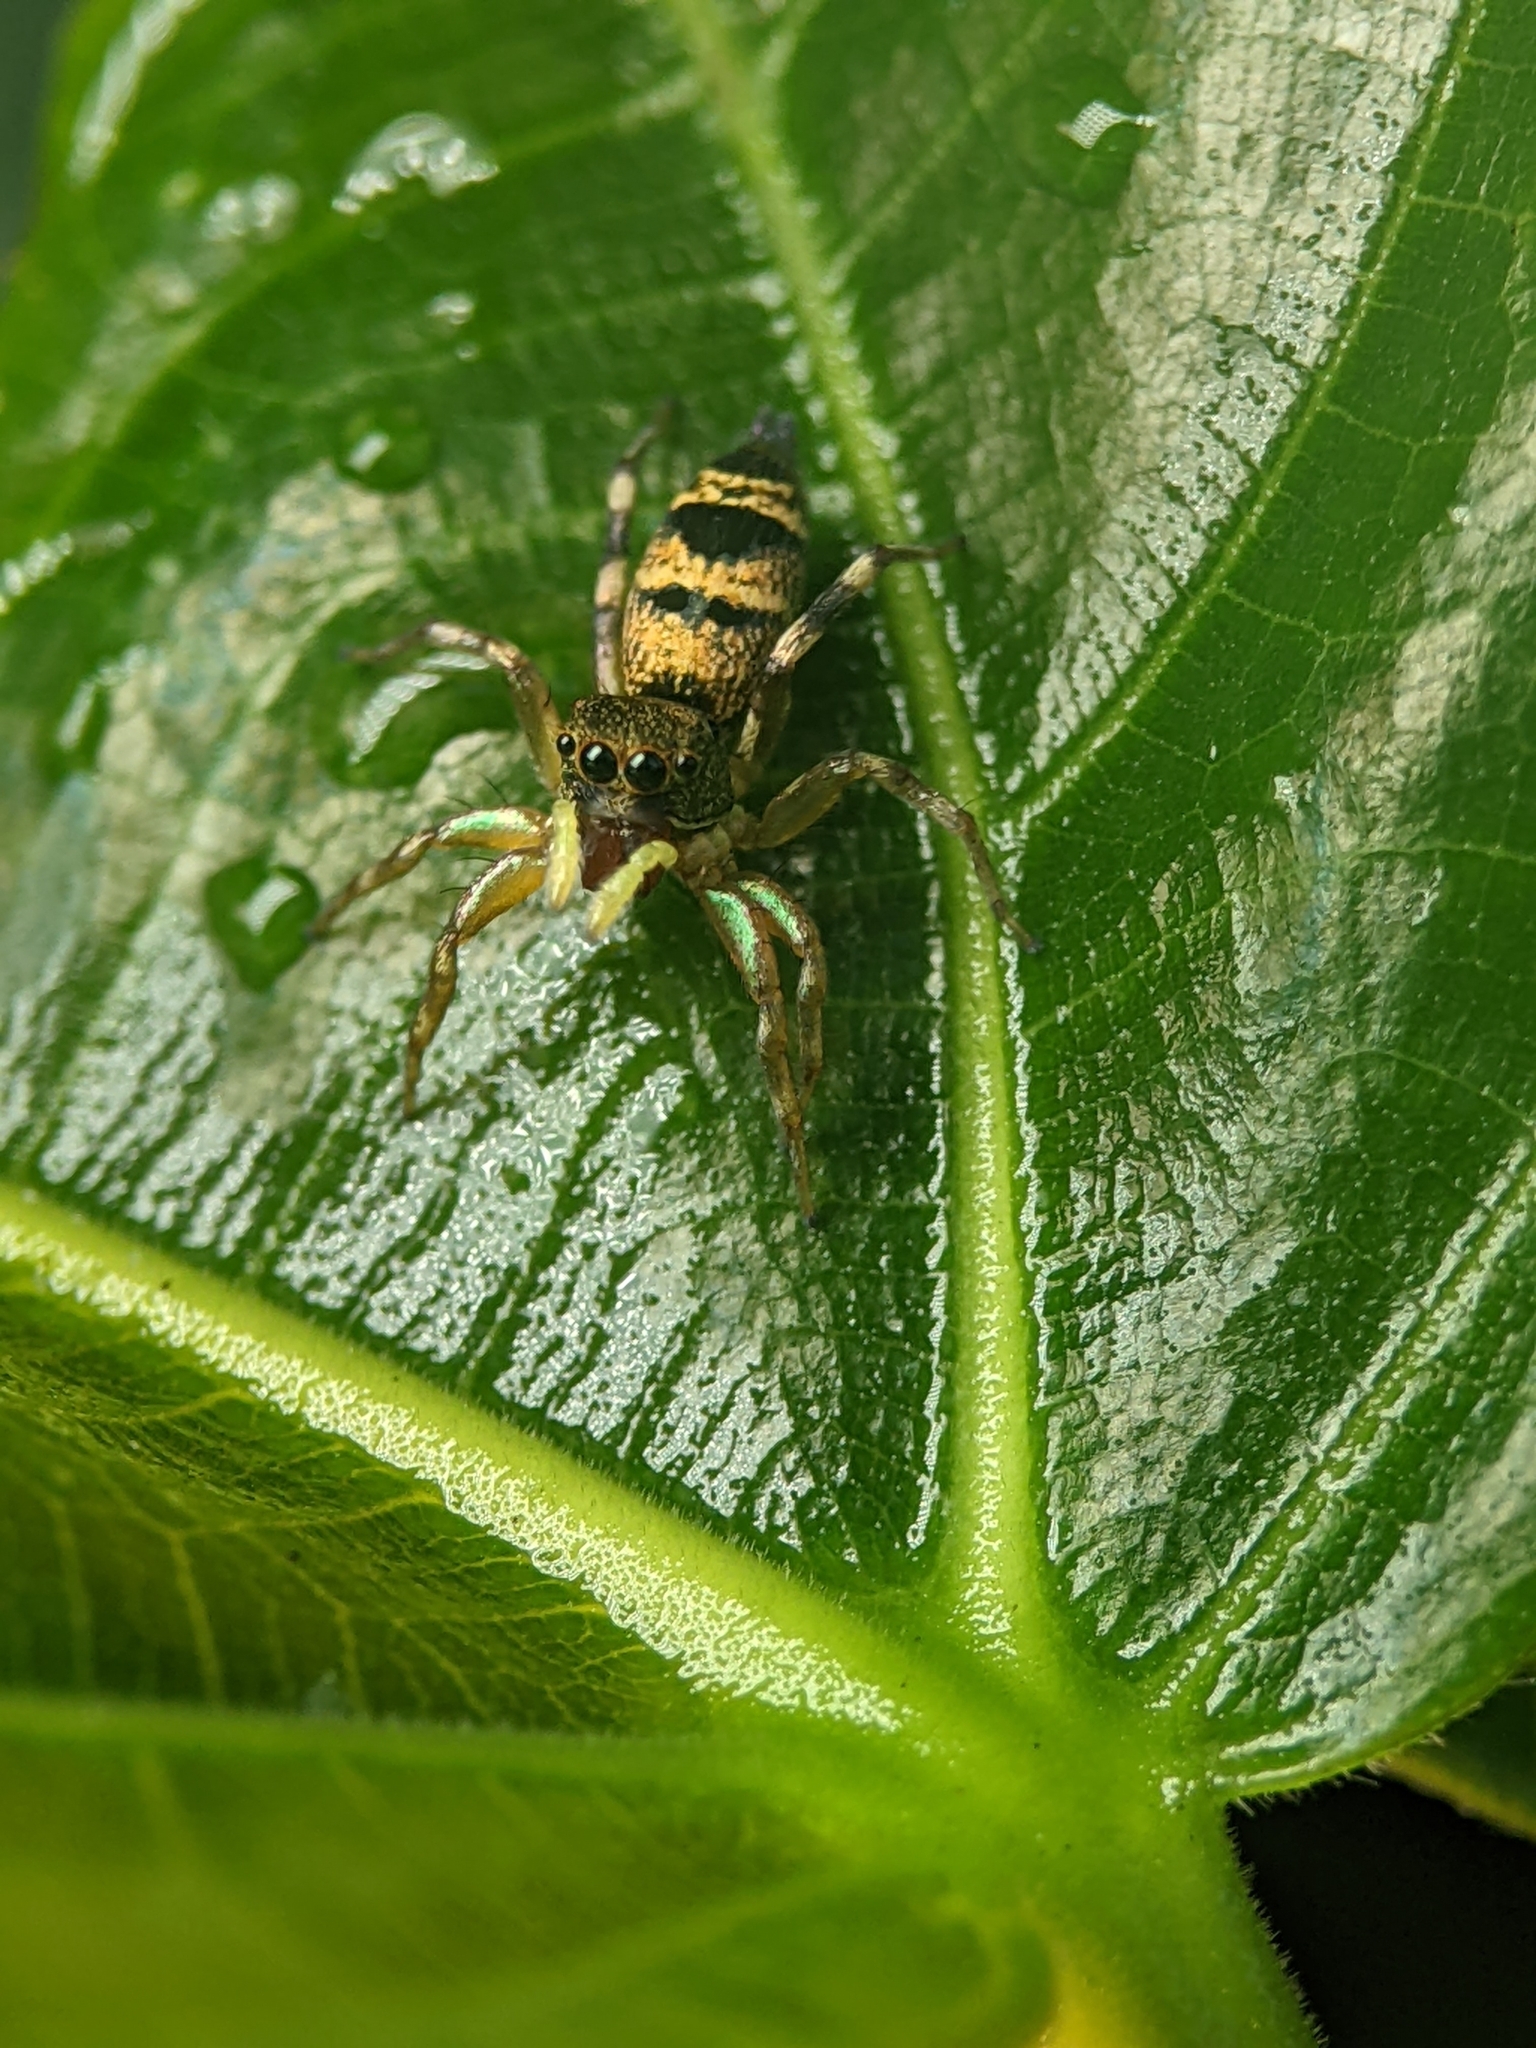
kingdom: Animalia
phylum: Arthropoda
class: Arachnida
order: Araneae
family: Salticidae
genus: Cosmophasis
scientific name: Cosmophasis thalassina
